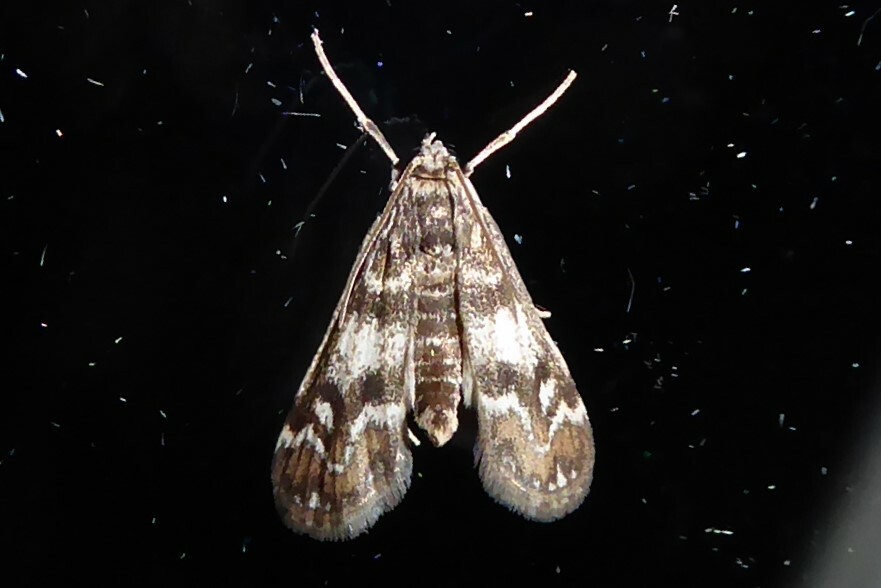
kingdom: Animalia
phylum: Arthropoda
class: Insecta
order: Lepidoptera
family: Crambidae
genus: Hygraula
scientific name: Hygraula nitens
